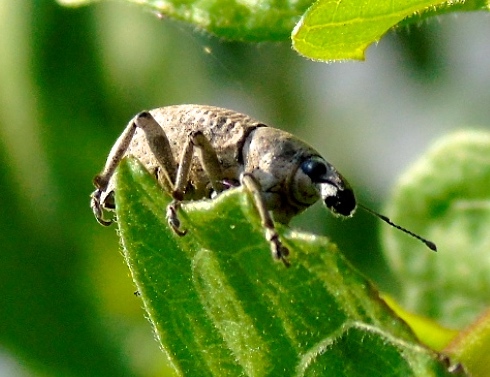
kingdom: Animalia
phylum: Arthropoda
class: Insecta
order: Coleoptera
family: Curculionidae
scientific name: Curculionidae
